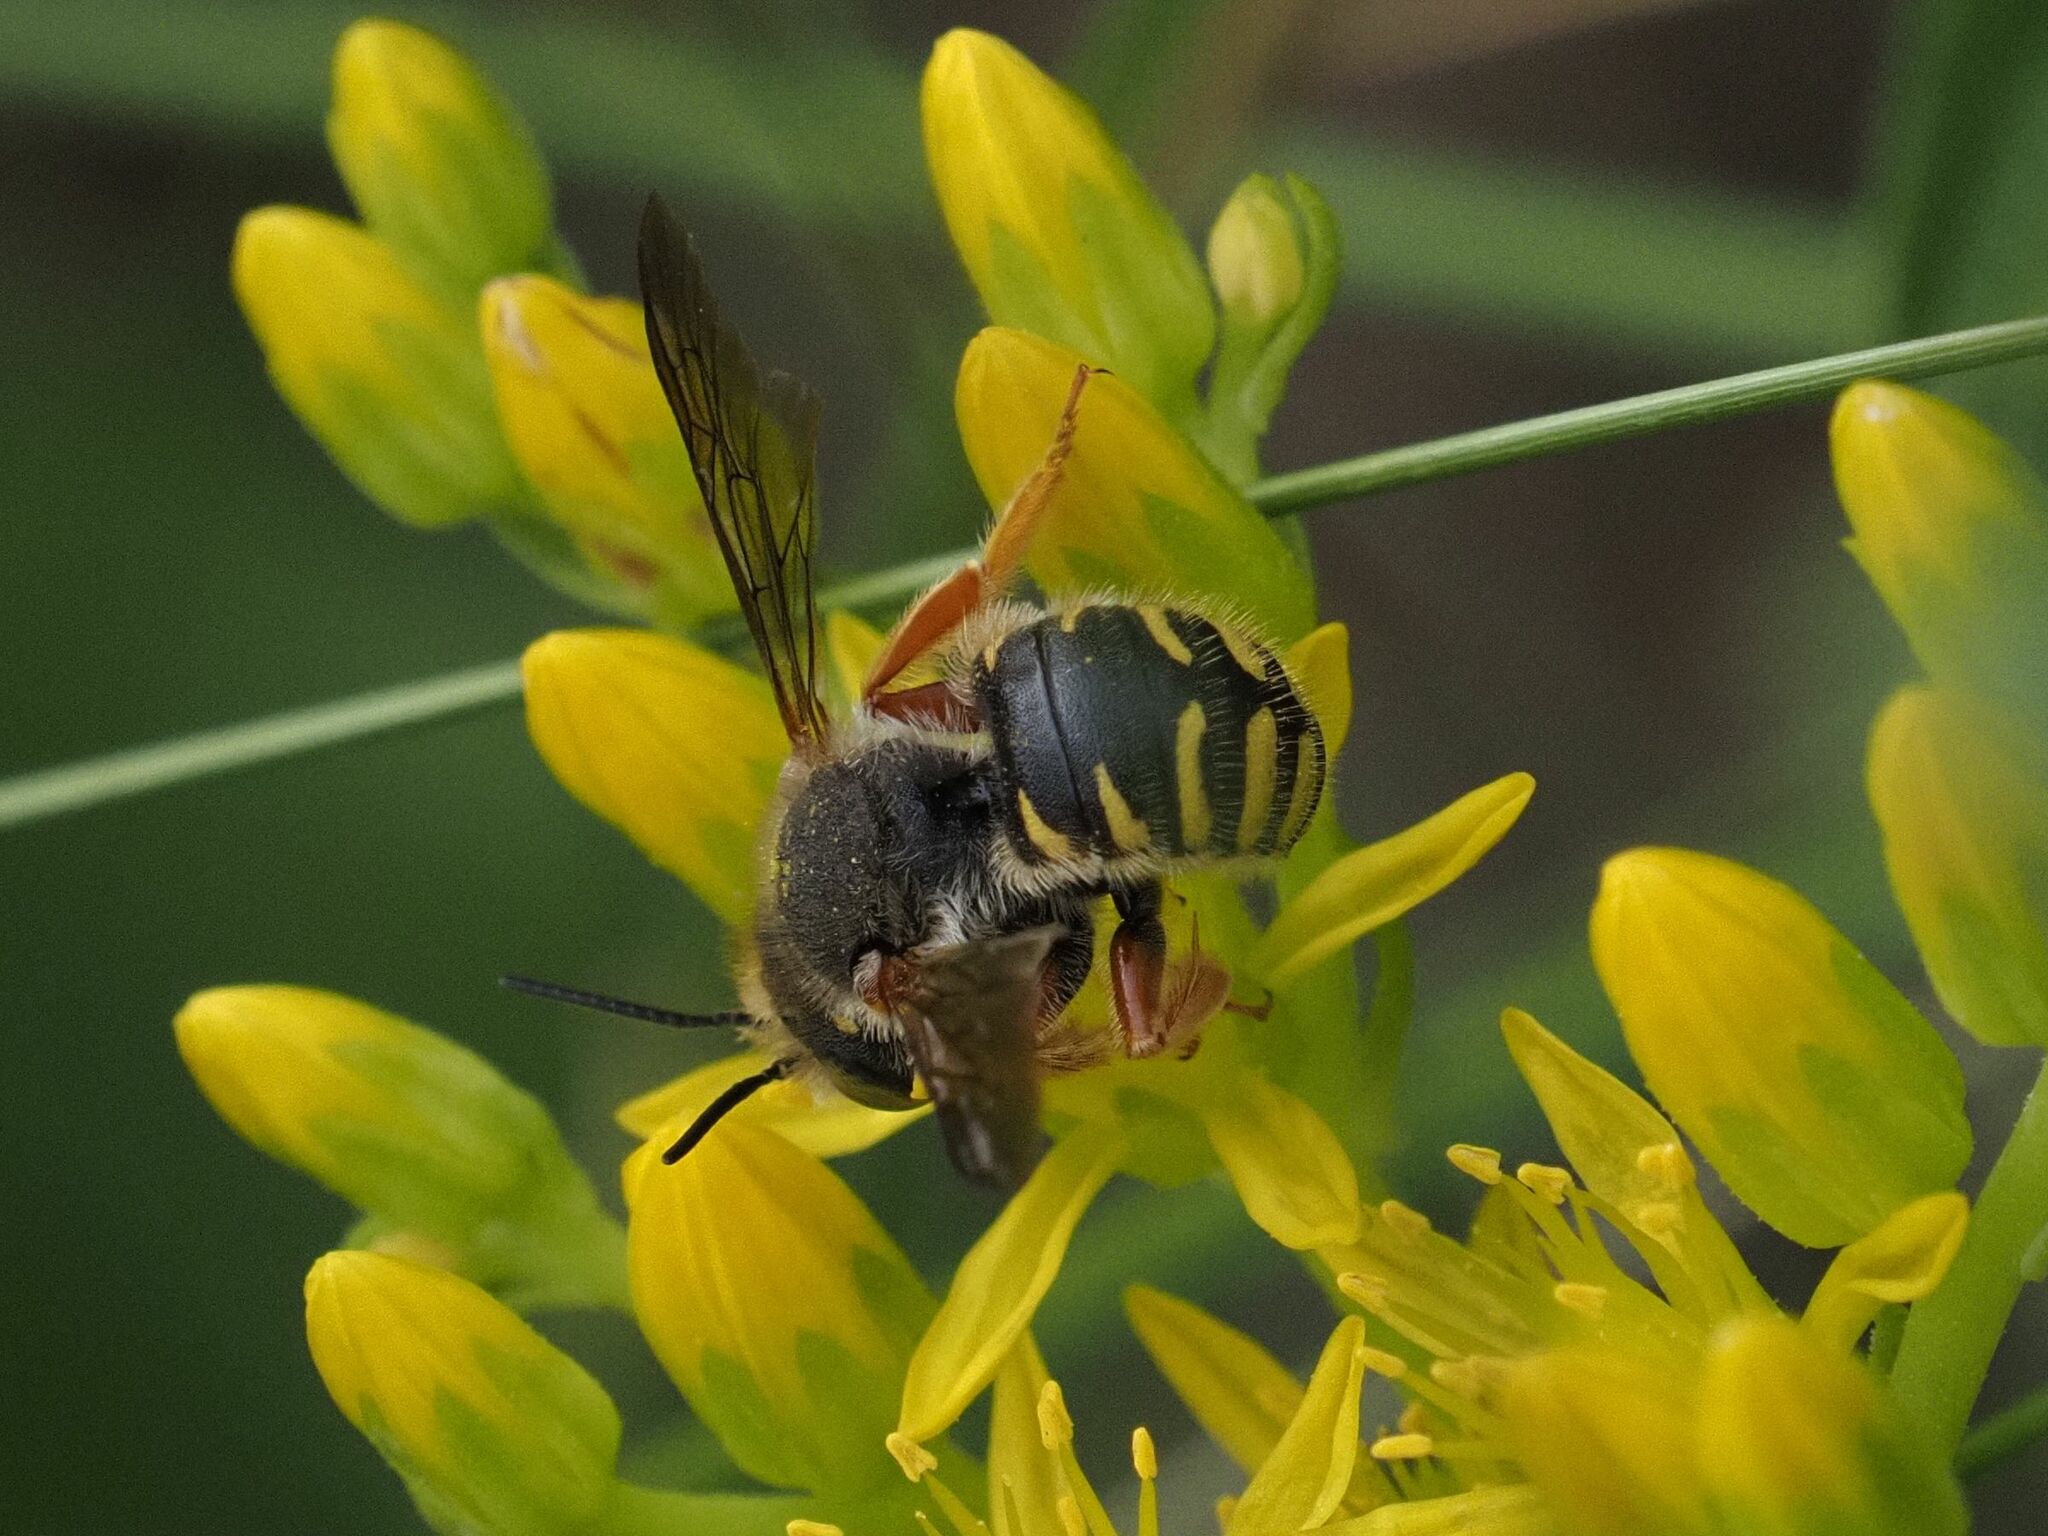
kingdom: Animalia
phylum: Arthropoda
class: Insecta
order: Hymenoptera
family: Megachilidae
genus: Anthidium
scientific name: Anthidium oblongatum
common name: Oblong wool carder bee
